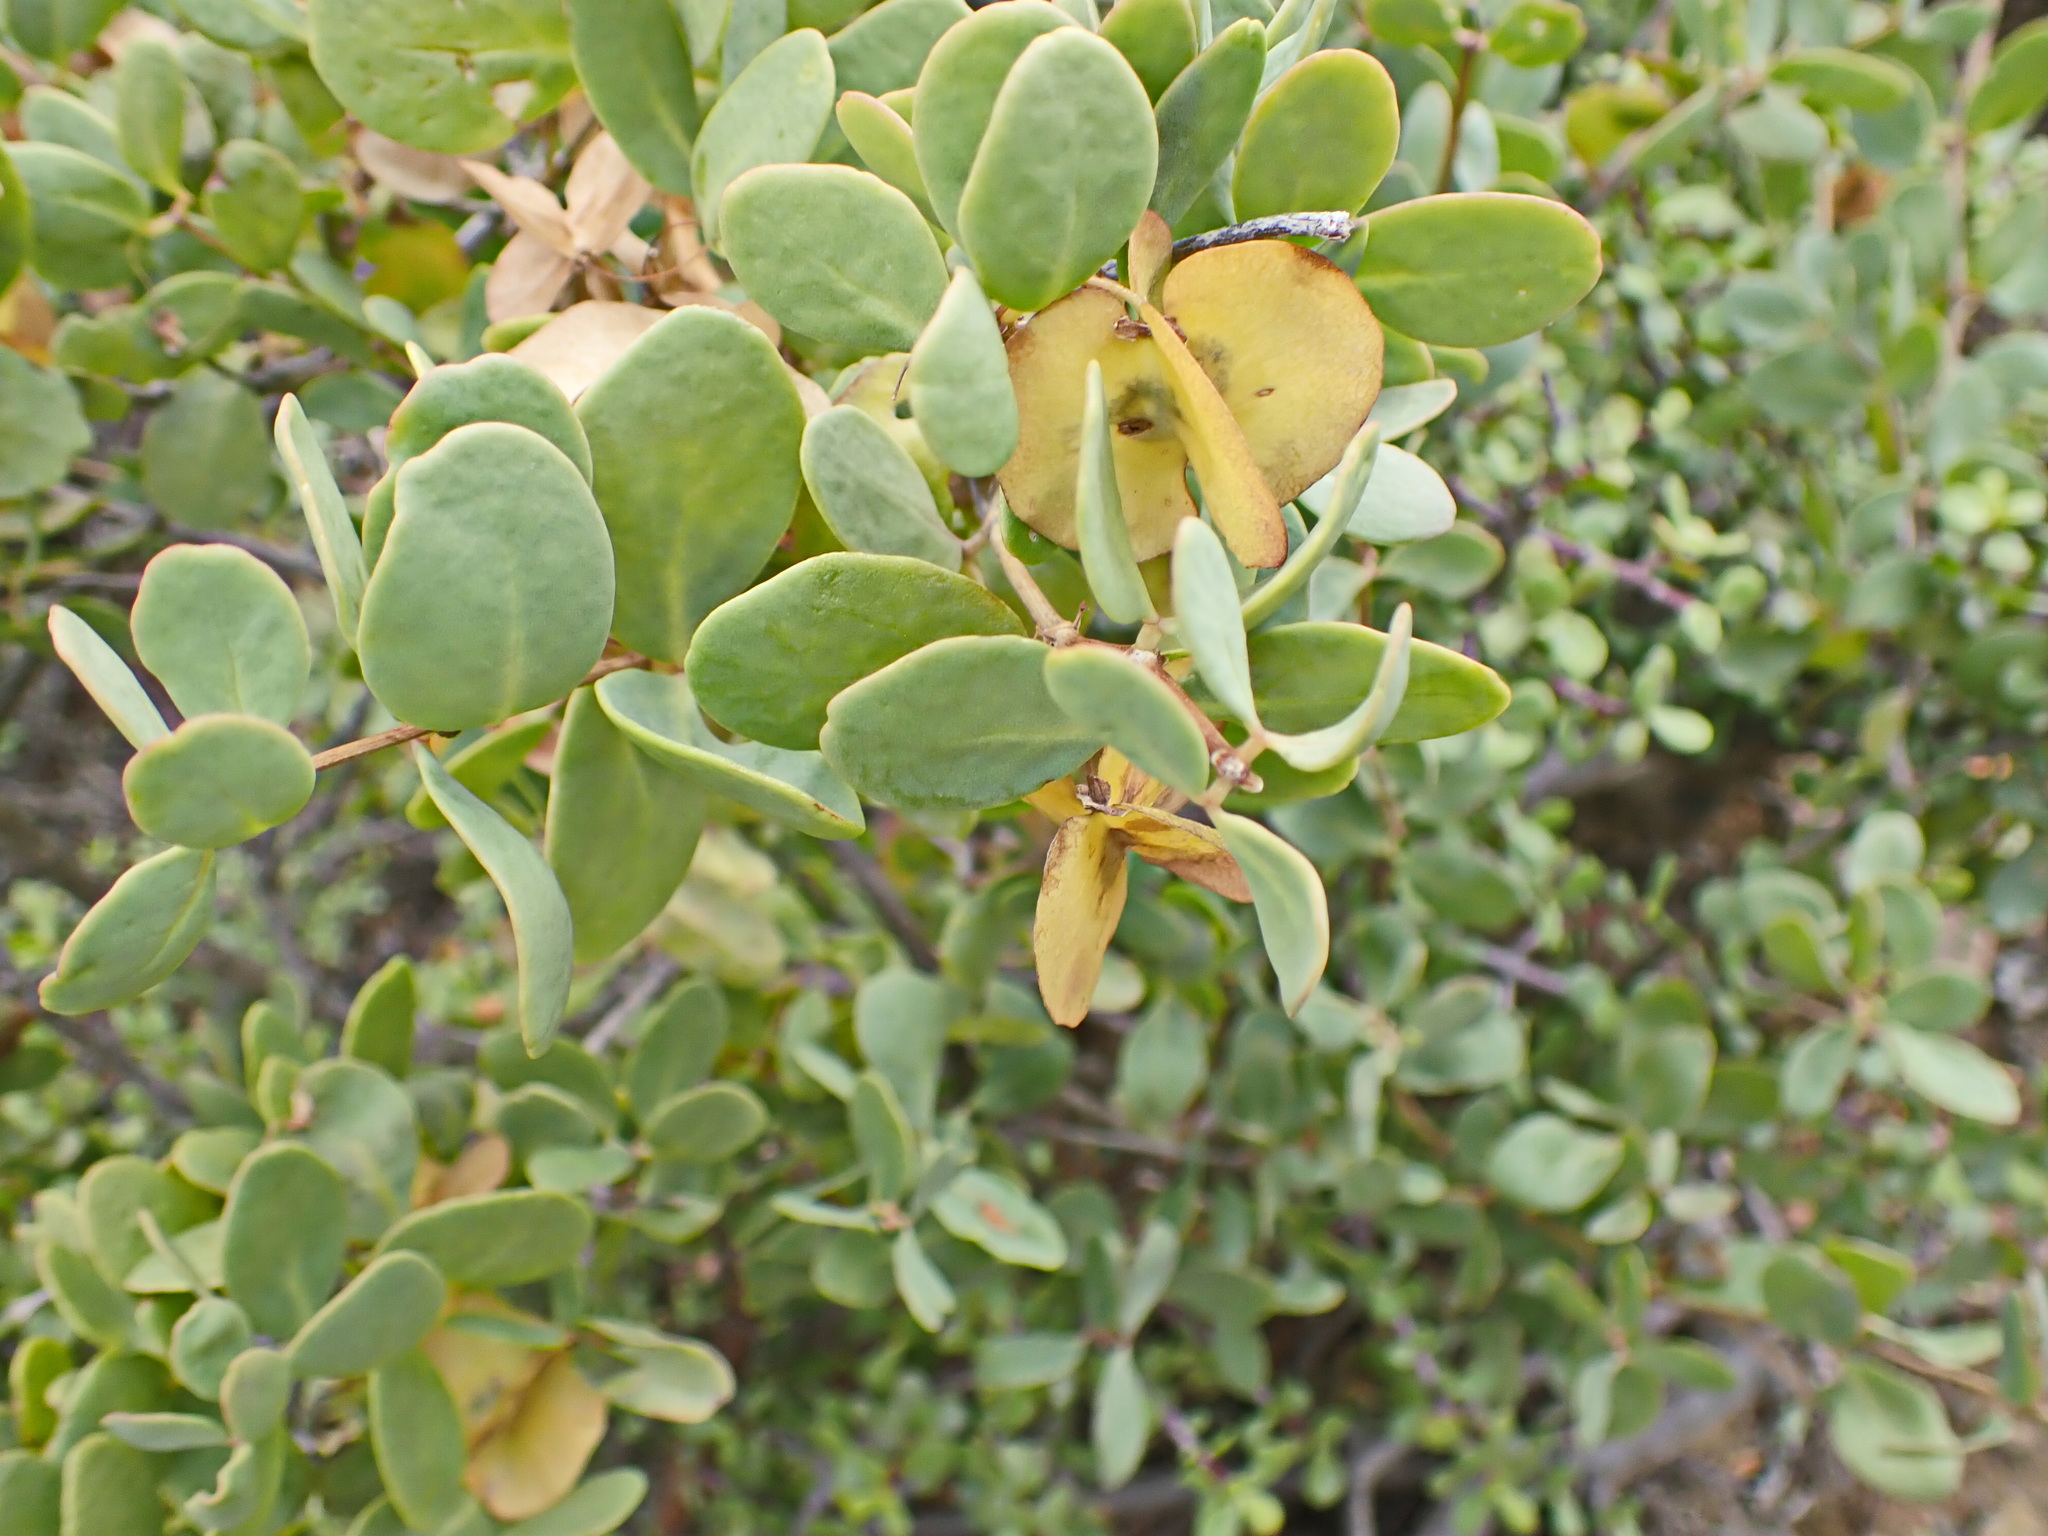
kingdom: Plantae
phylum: Tracheophyta
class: Magnoliopsida
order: Zygophyllales
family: Zygophyllaceae
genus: Roepera
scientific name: Roepera morgsana
